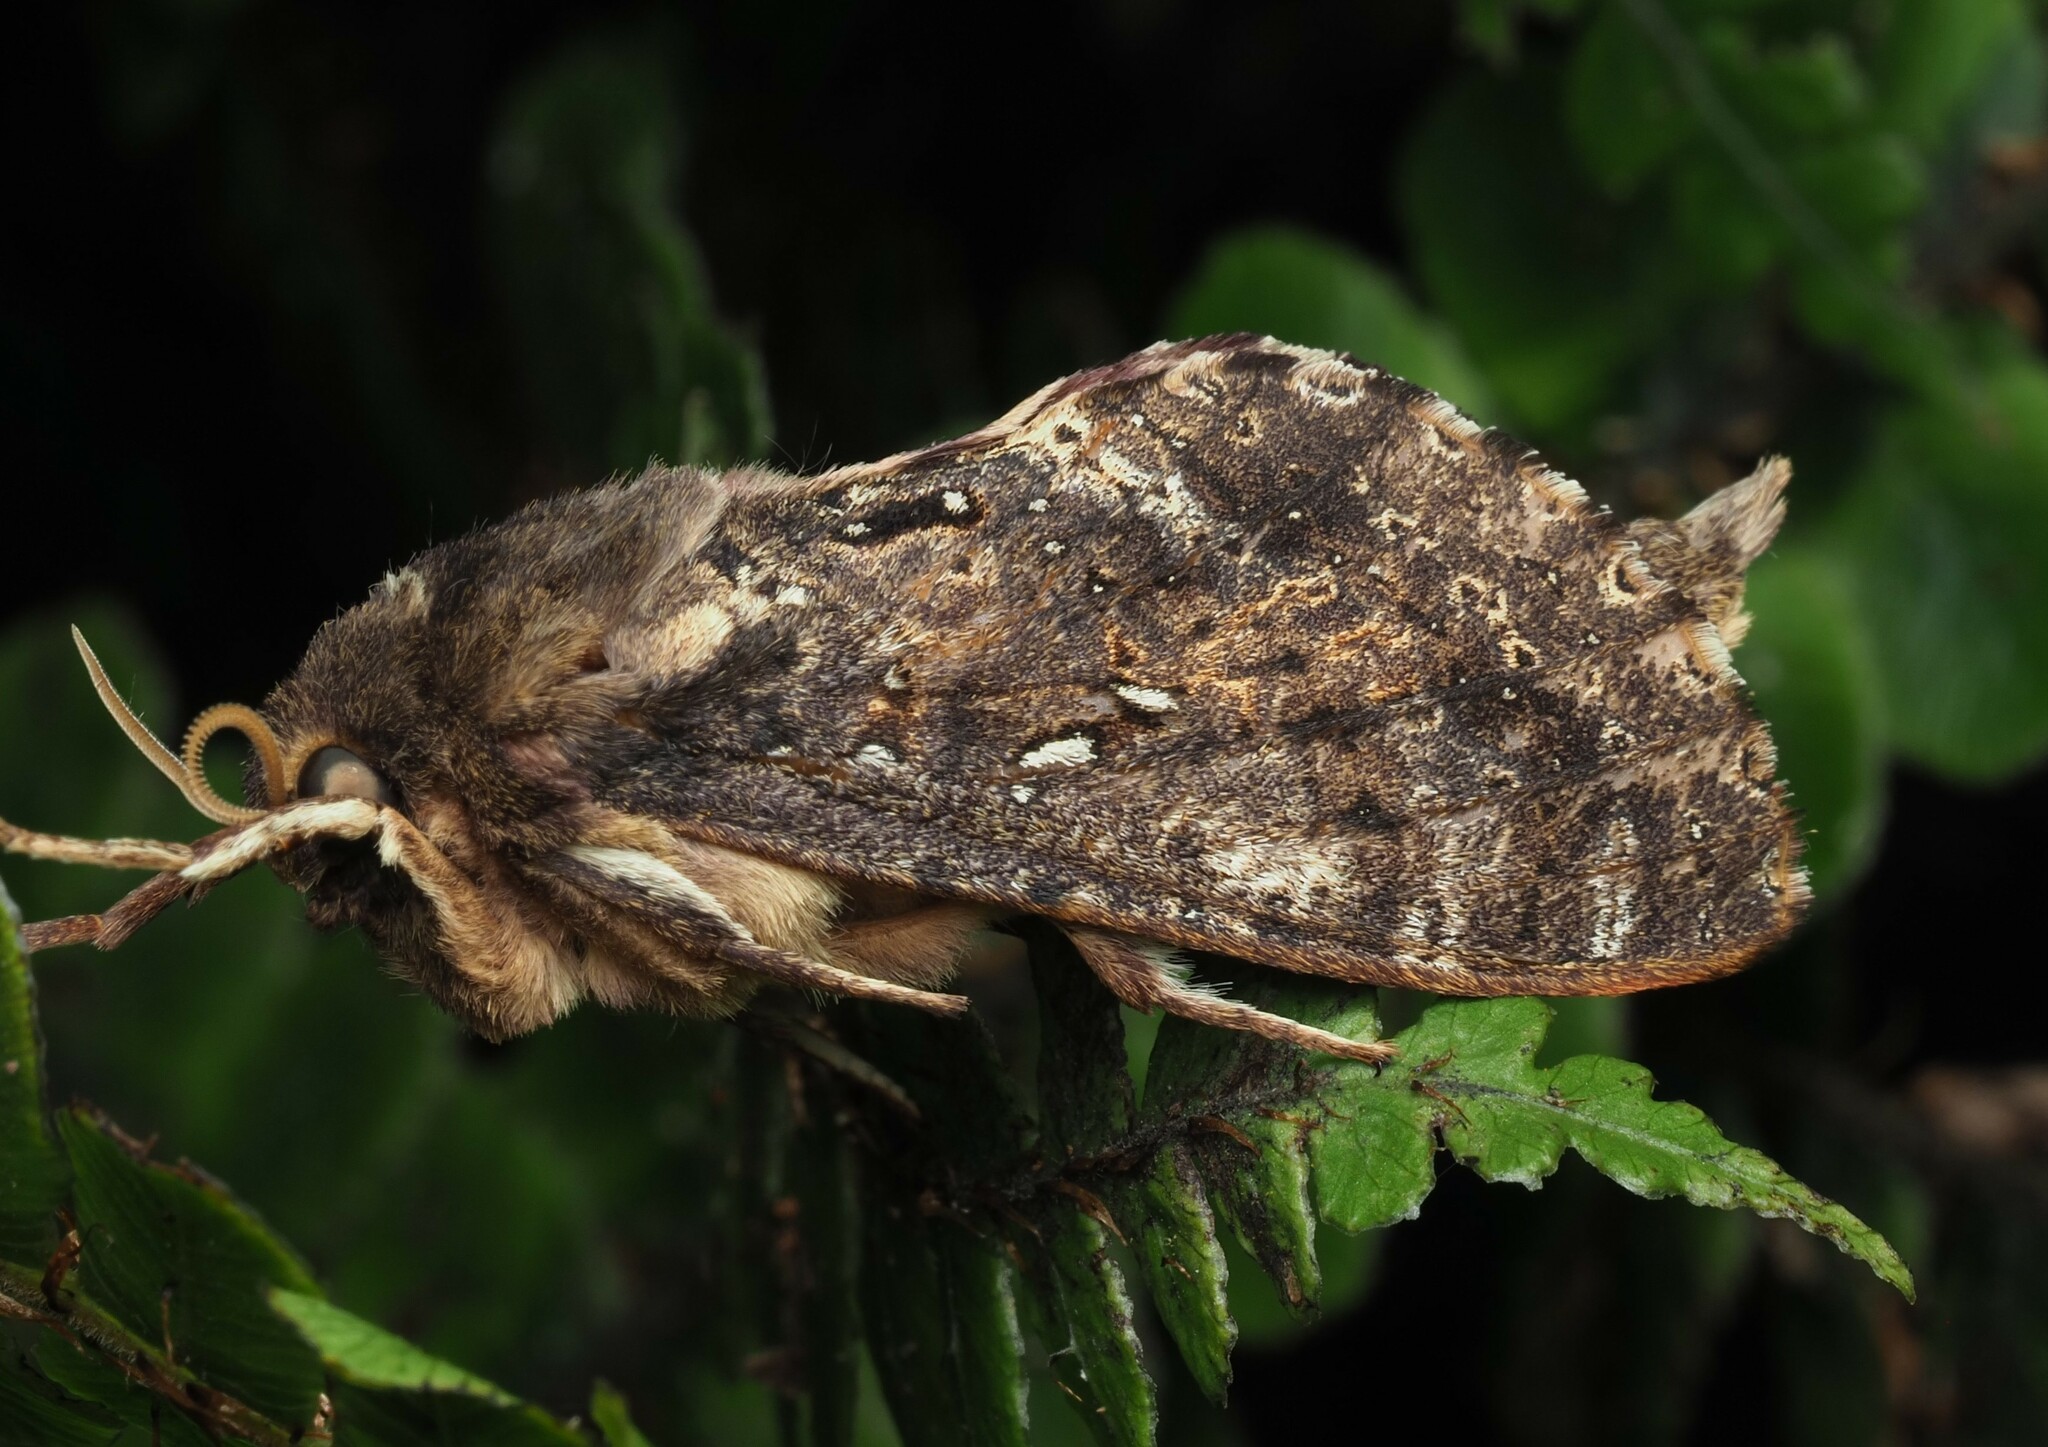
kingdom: Animalia
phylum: Arthropoda
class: Insecta
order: Lepidoptera
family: Hepialidae
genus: Dumbletonius
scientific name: Dumbletonius unimaculata
